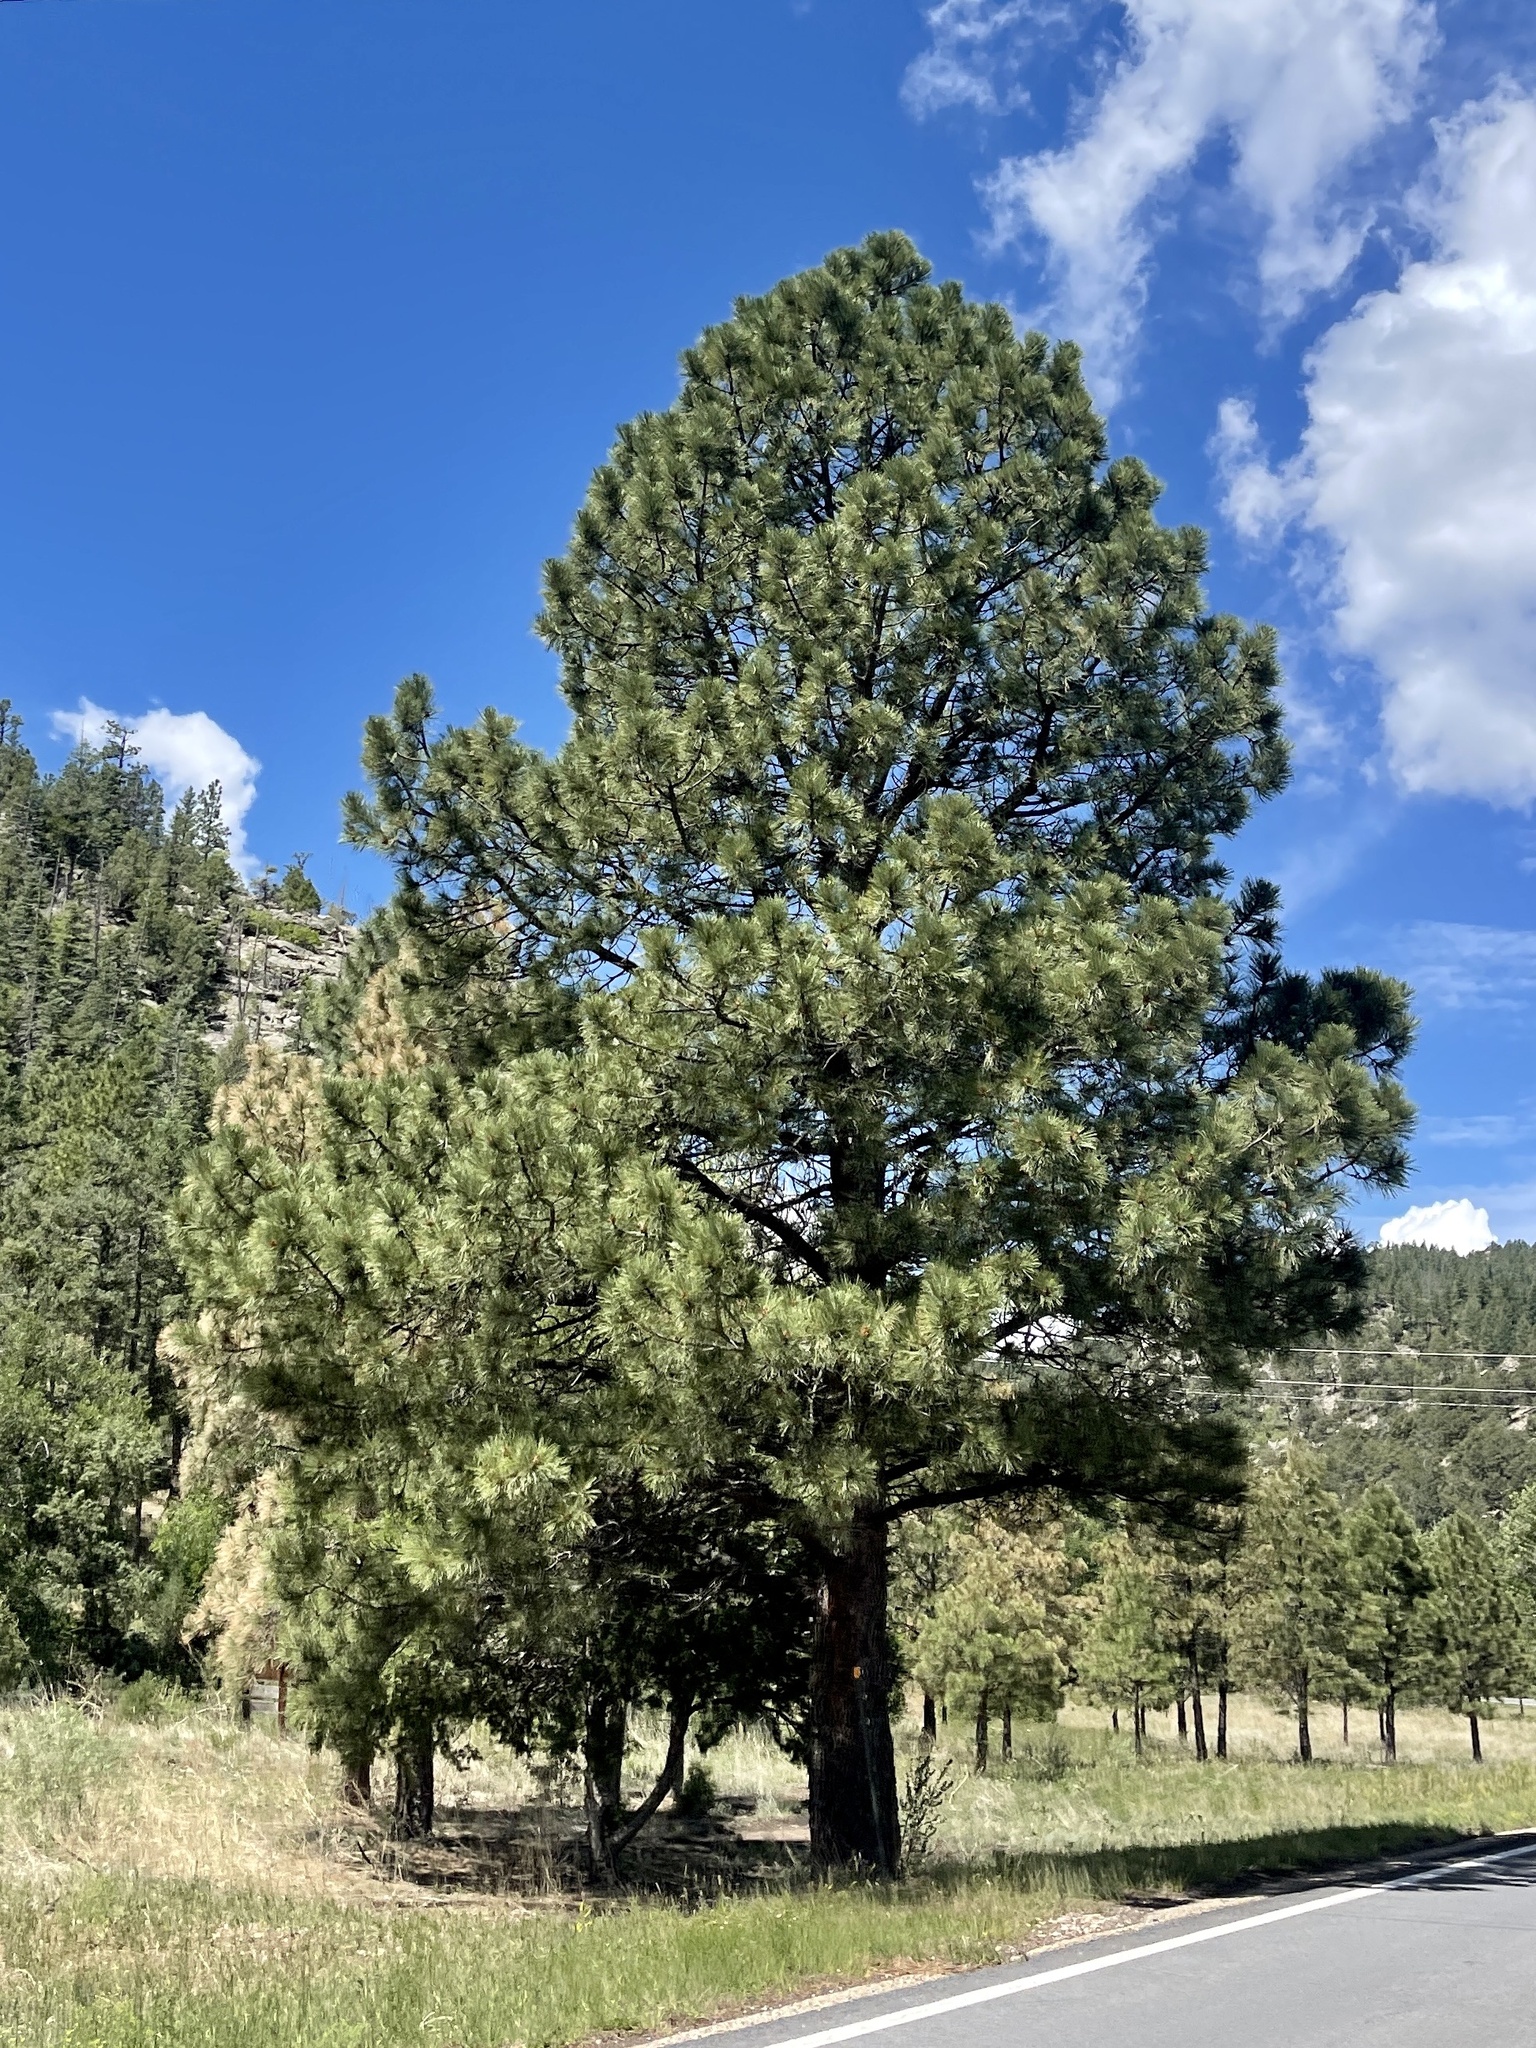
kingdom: Plantae
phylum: Tracheophyta
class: Pinopsida
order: Pinales
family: Pinaceae
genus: Pinus
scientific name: Pinus ponderosa
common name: Western yellow-pine
